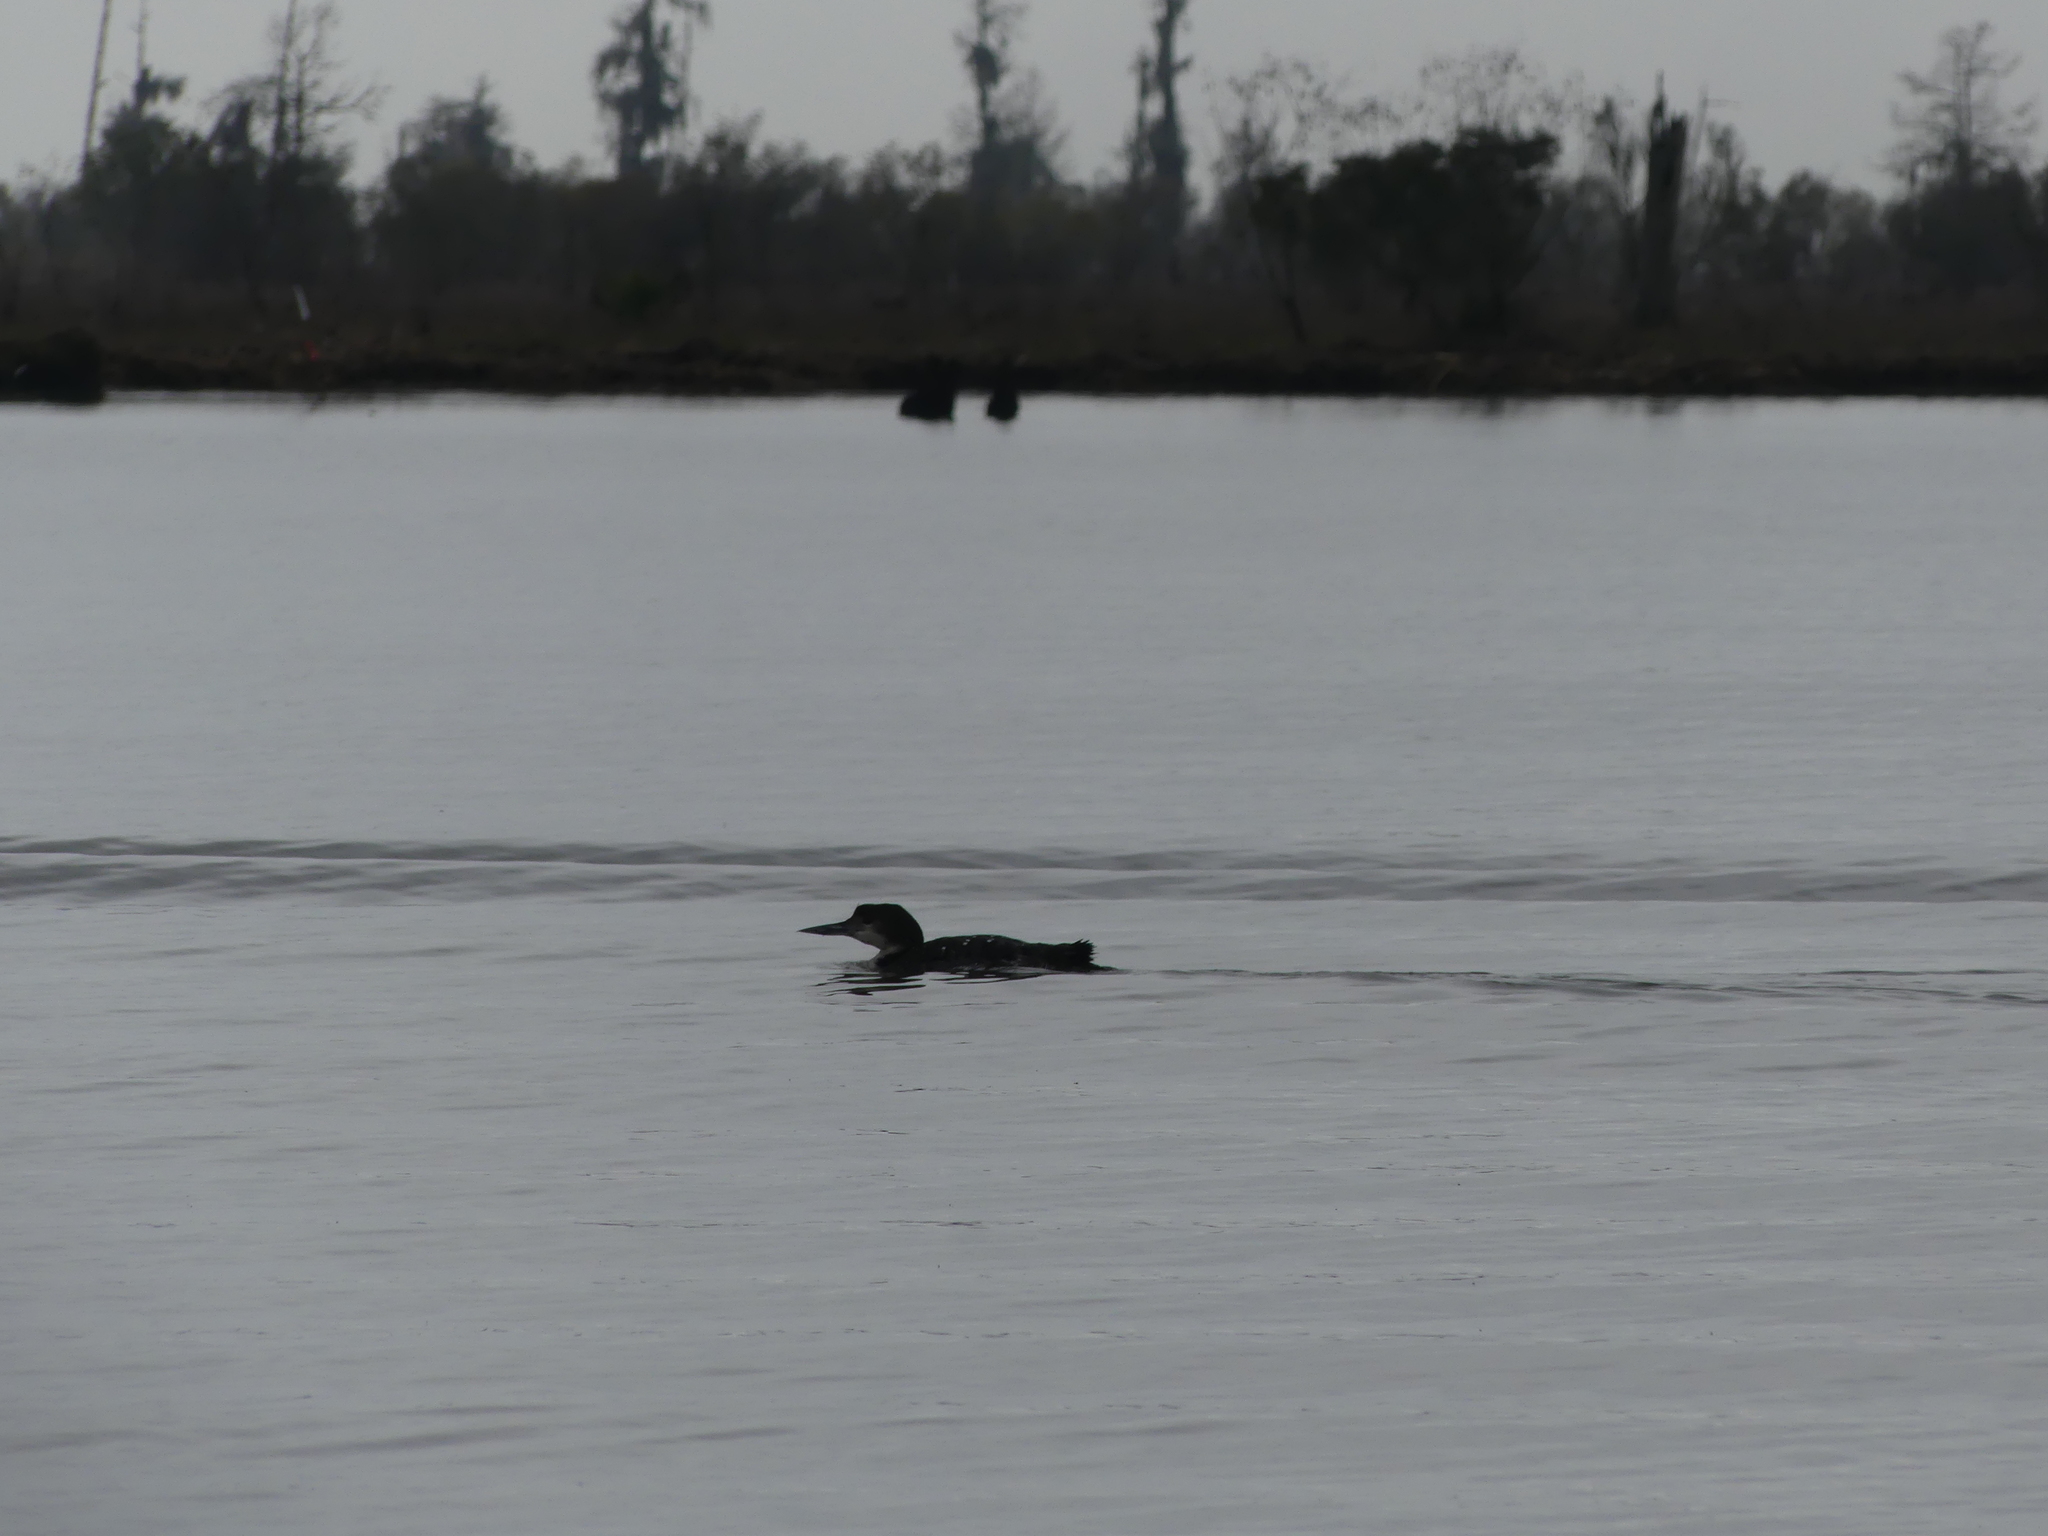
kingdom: Animalia
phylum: Chordata
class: Aves
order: Gaviiformes
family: Gaviidae
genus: Gavia
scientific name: Gavia immer
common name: Common loon
